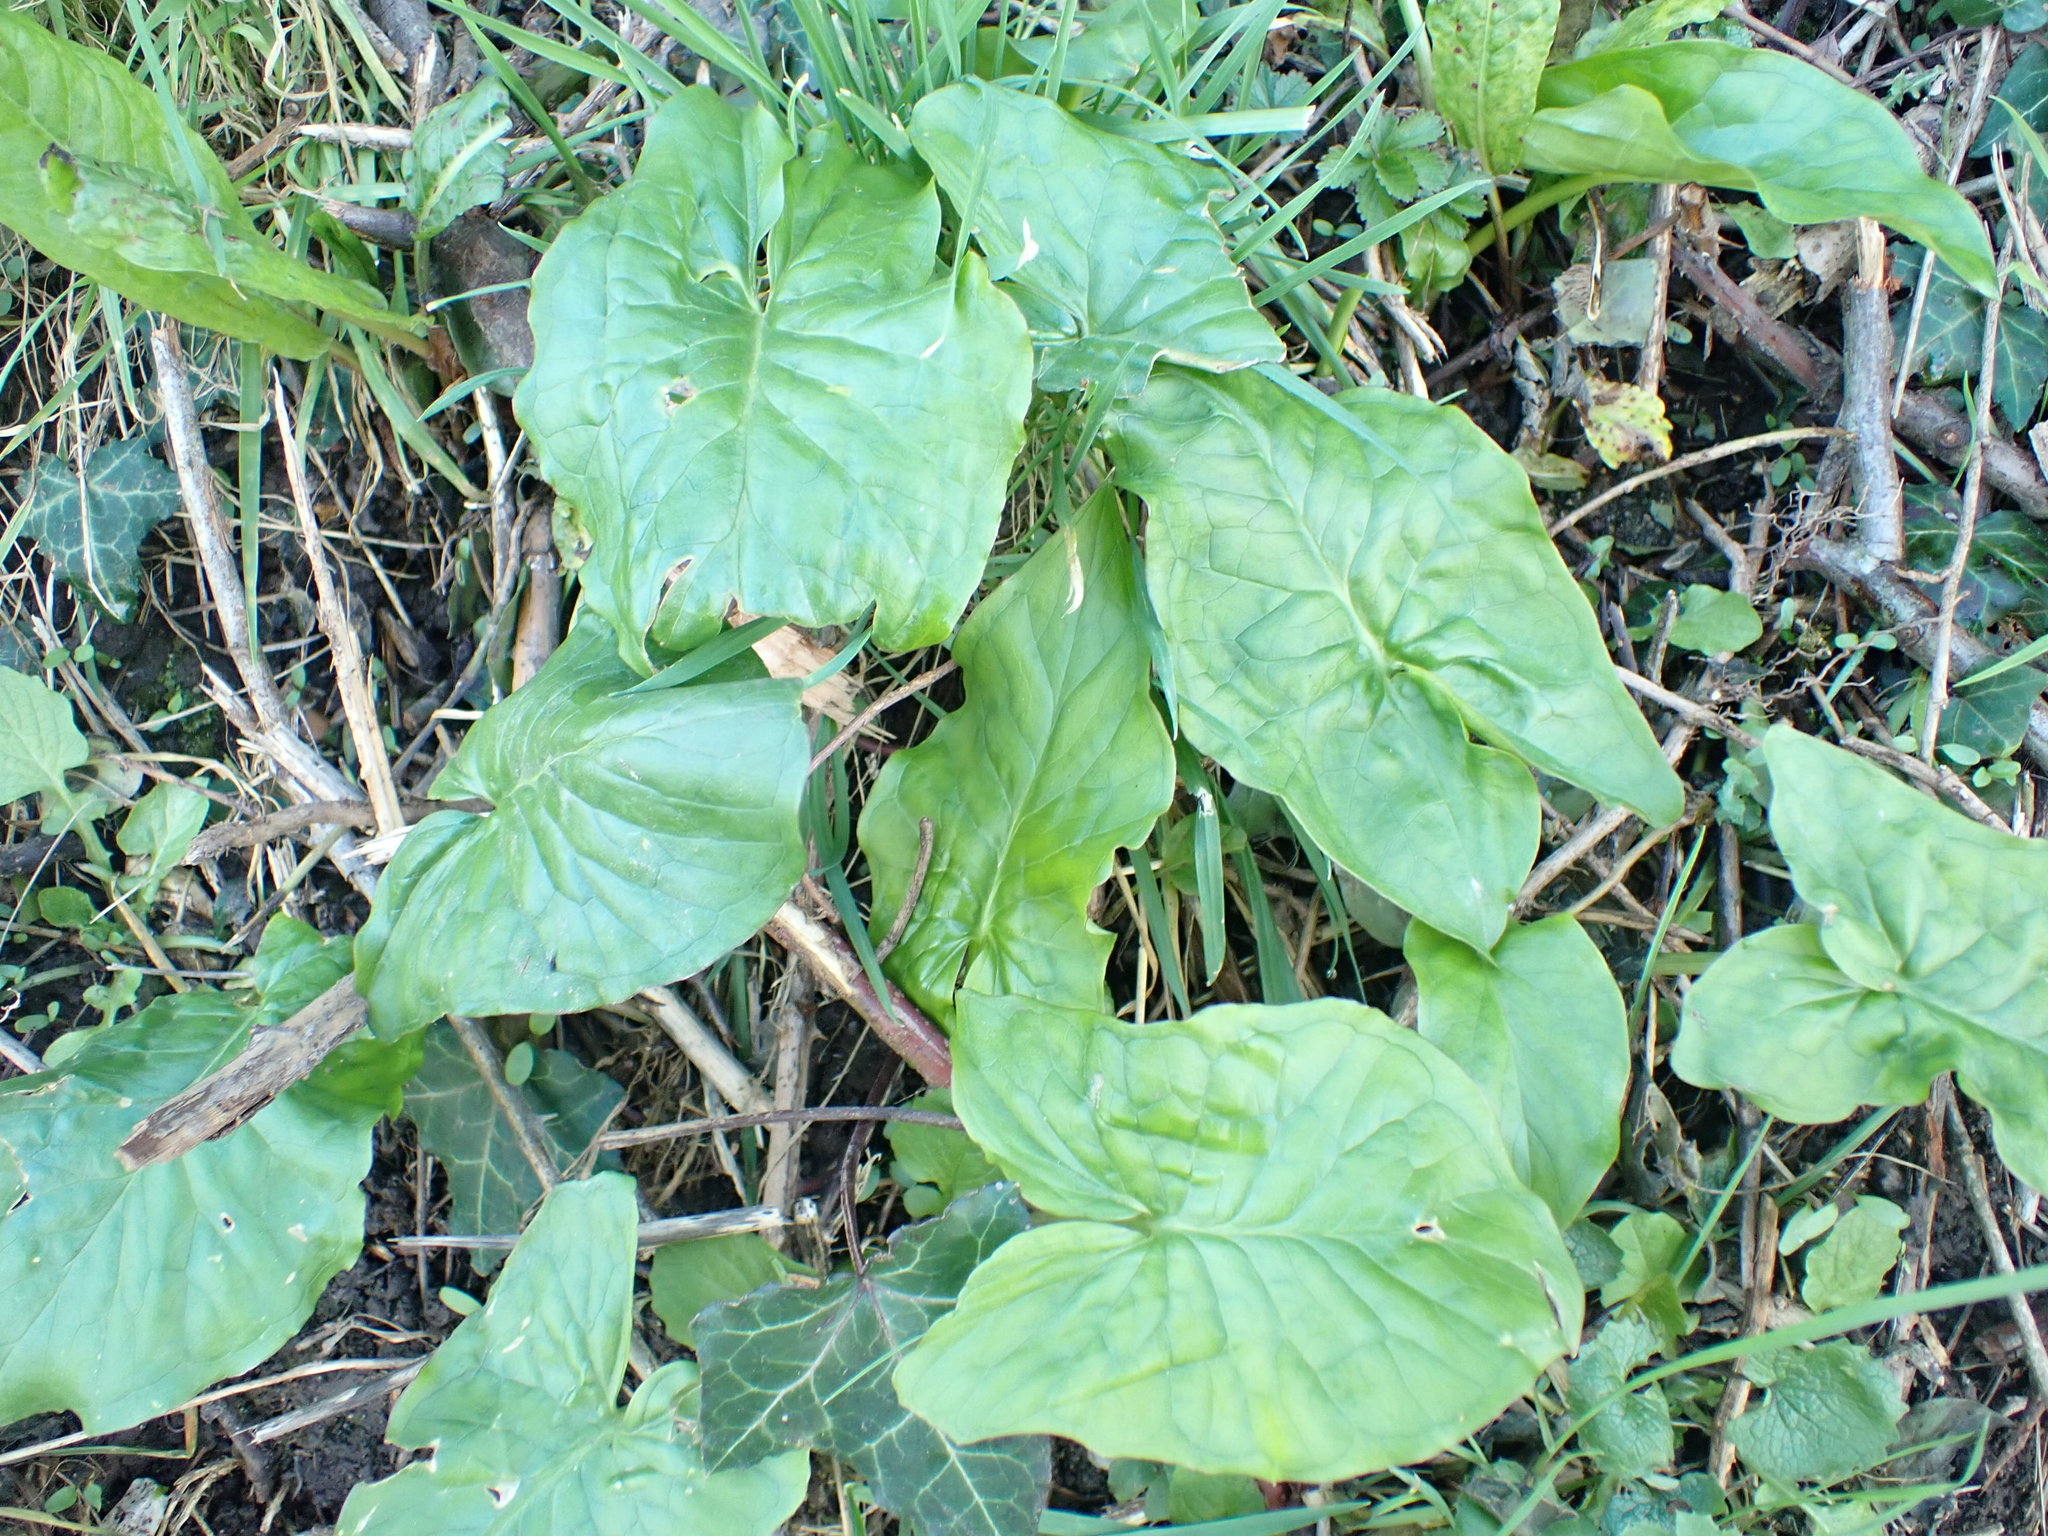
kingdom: Plantae
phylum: Tracheophyta
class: Liliopsida
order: Alismatales
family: Araceae
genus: Arum
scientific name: Arum maculatum
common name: Lords-and-ladies
